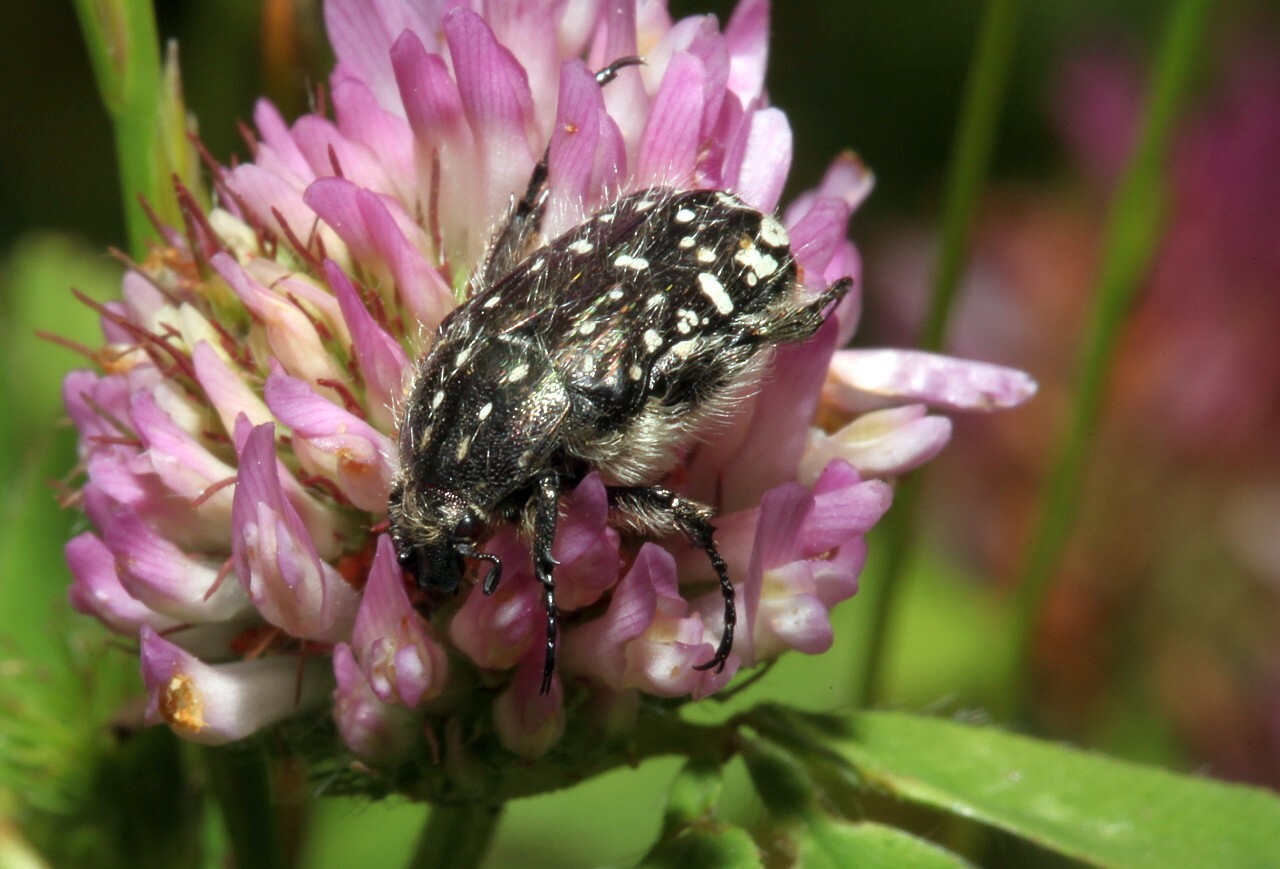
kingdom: Animalia
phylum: Arthropoda
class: Insecta
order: Coleoptera
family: Scarabaeidae
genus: Oxythyrea
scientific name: Oxythyrea funesta
